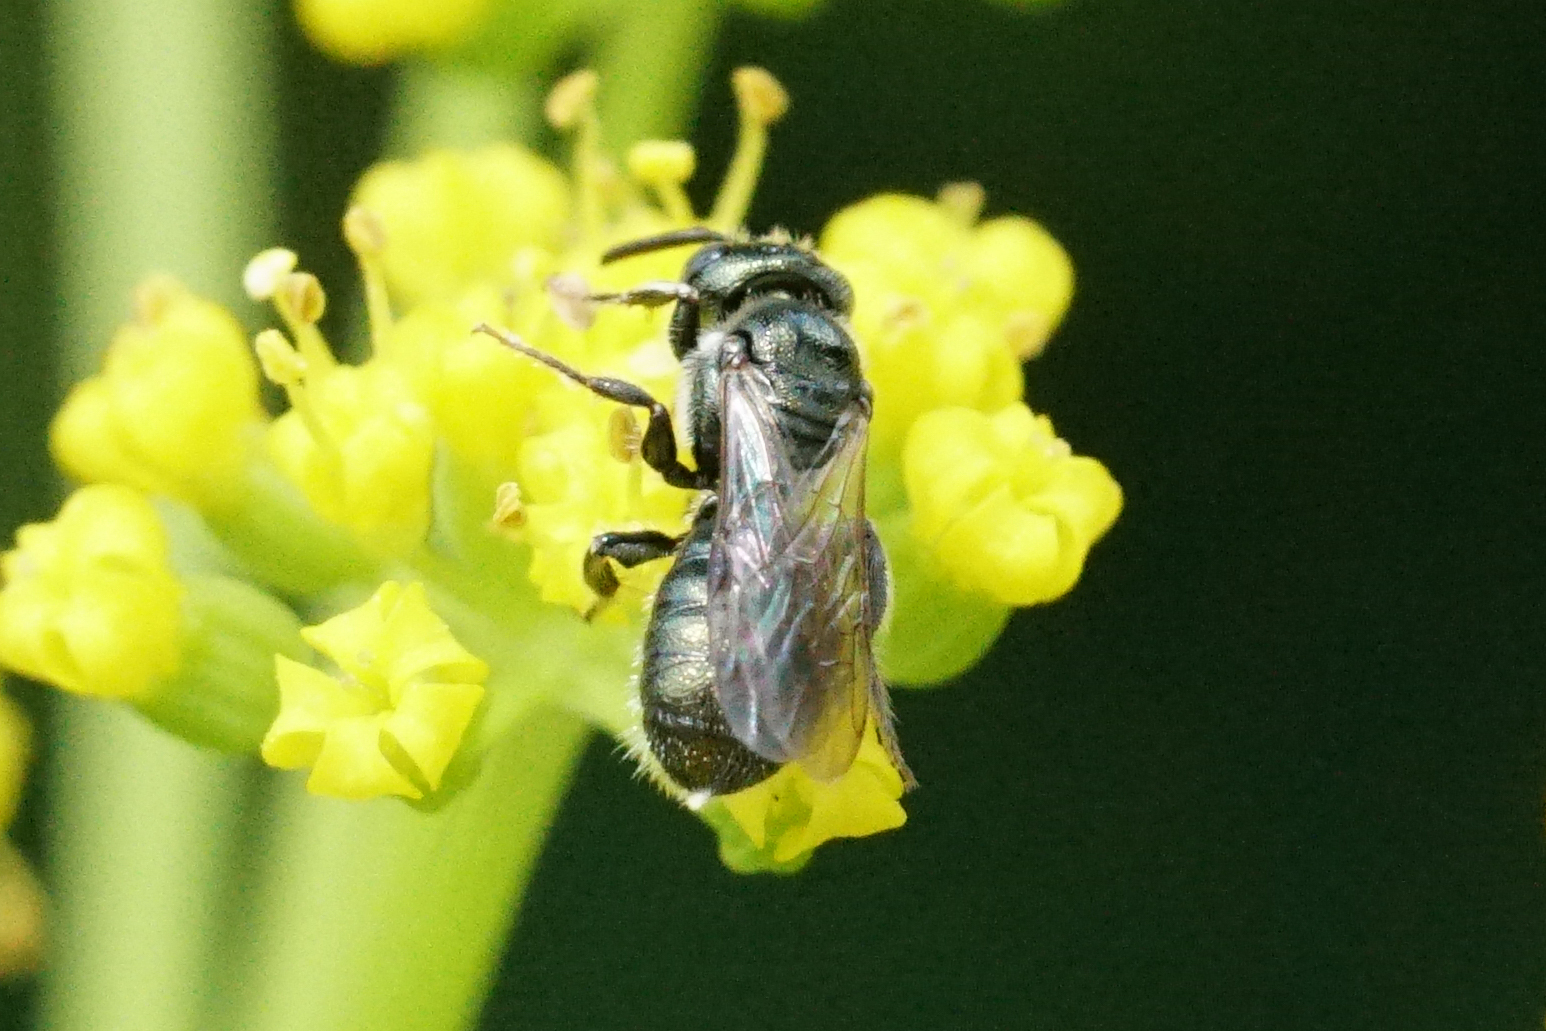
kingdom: Animalia
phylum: Arthropoda
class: Insecta
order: Hymenoptera
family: Apidae
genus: Ceratina
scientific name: Ceratina strenua
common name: Nimble carpenter bee
